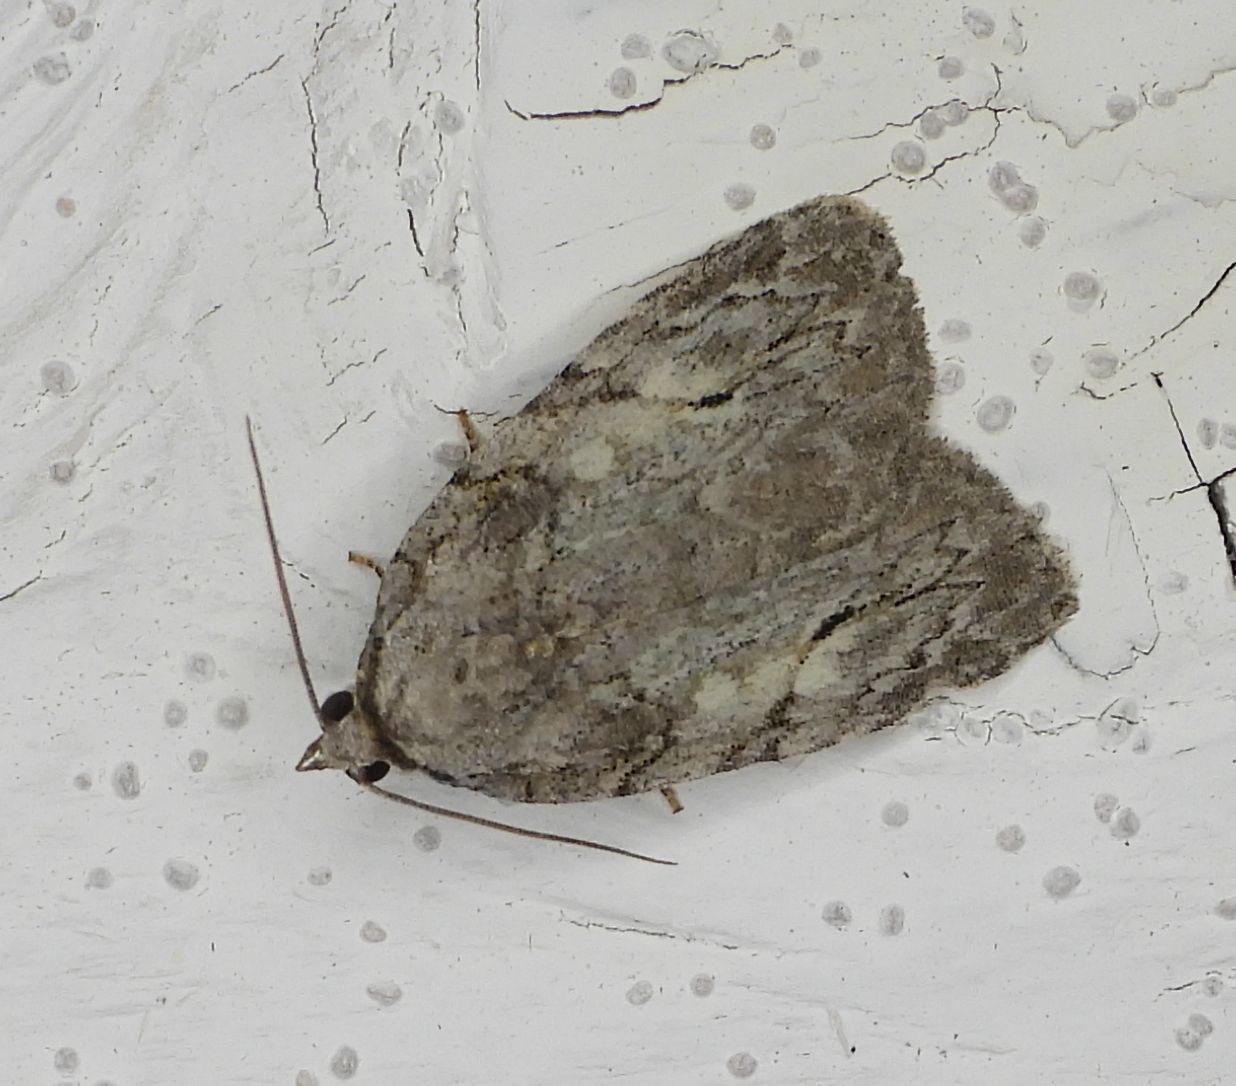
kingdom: Animalia
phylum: Arthropoda
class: Insecta
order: Lepidoptera
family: Noctuidae
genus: Balsa
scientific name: Balsa labecula
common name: White-blotched balsa moth
